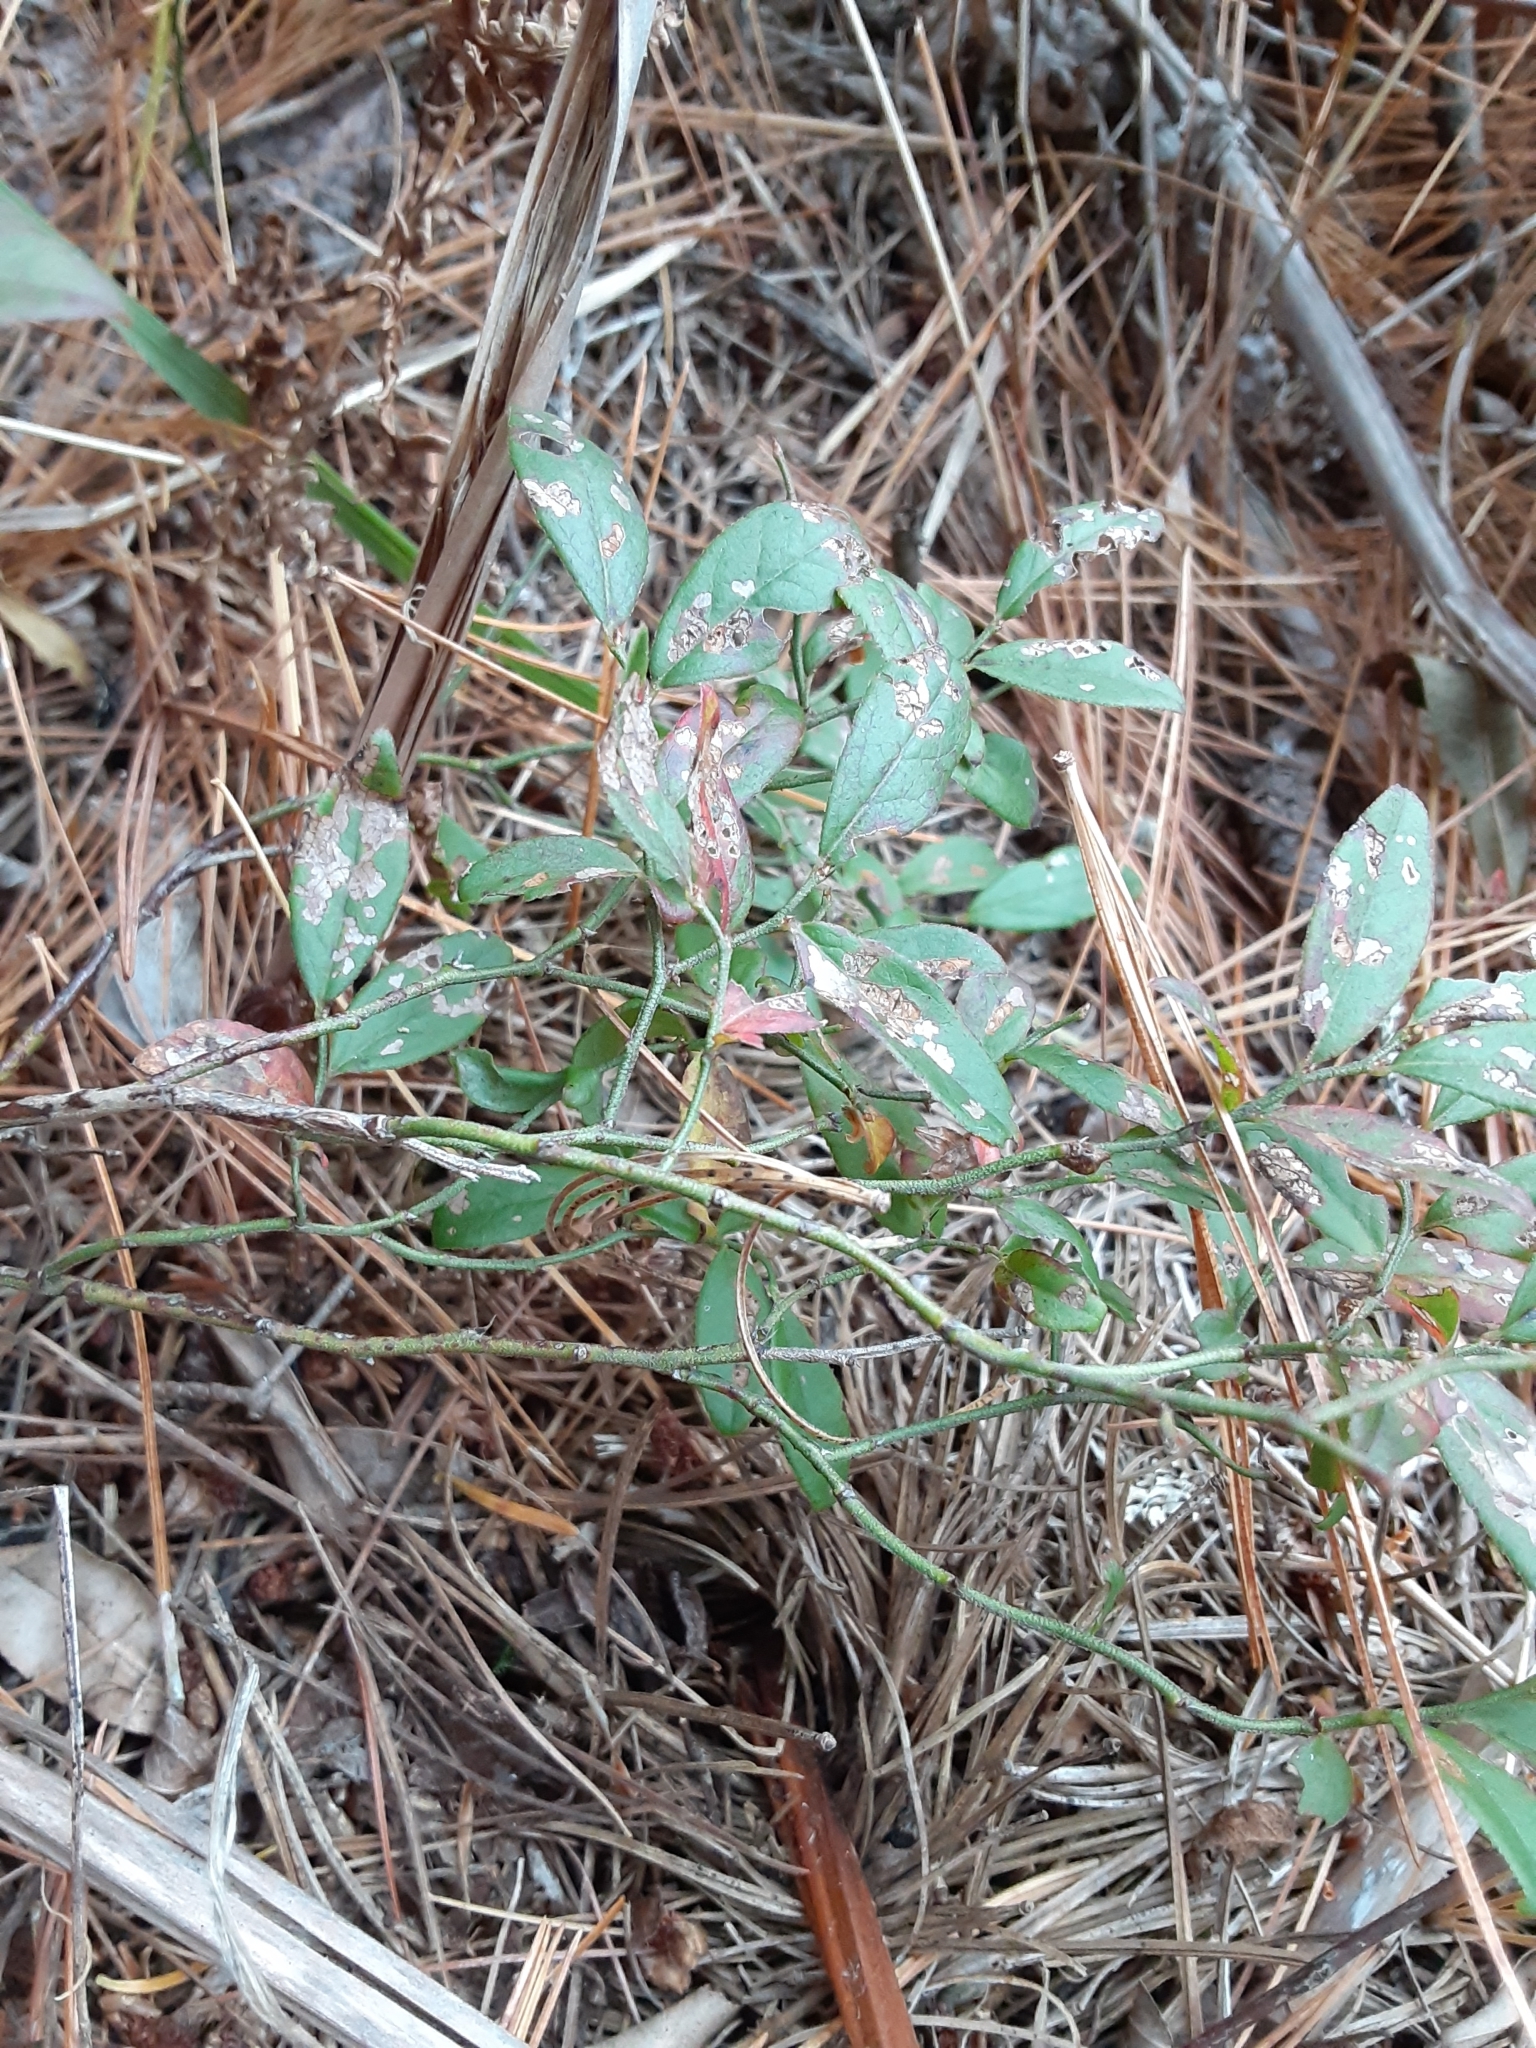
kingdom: Plantae
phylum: Tracheophyta
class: Magnoliopsida
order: Ericales
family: Ericaceae
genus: Vaccinium
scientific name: Vaccinium angustifolium
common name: Early lowbush blueberry
